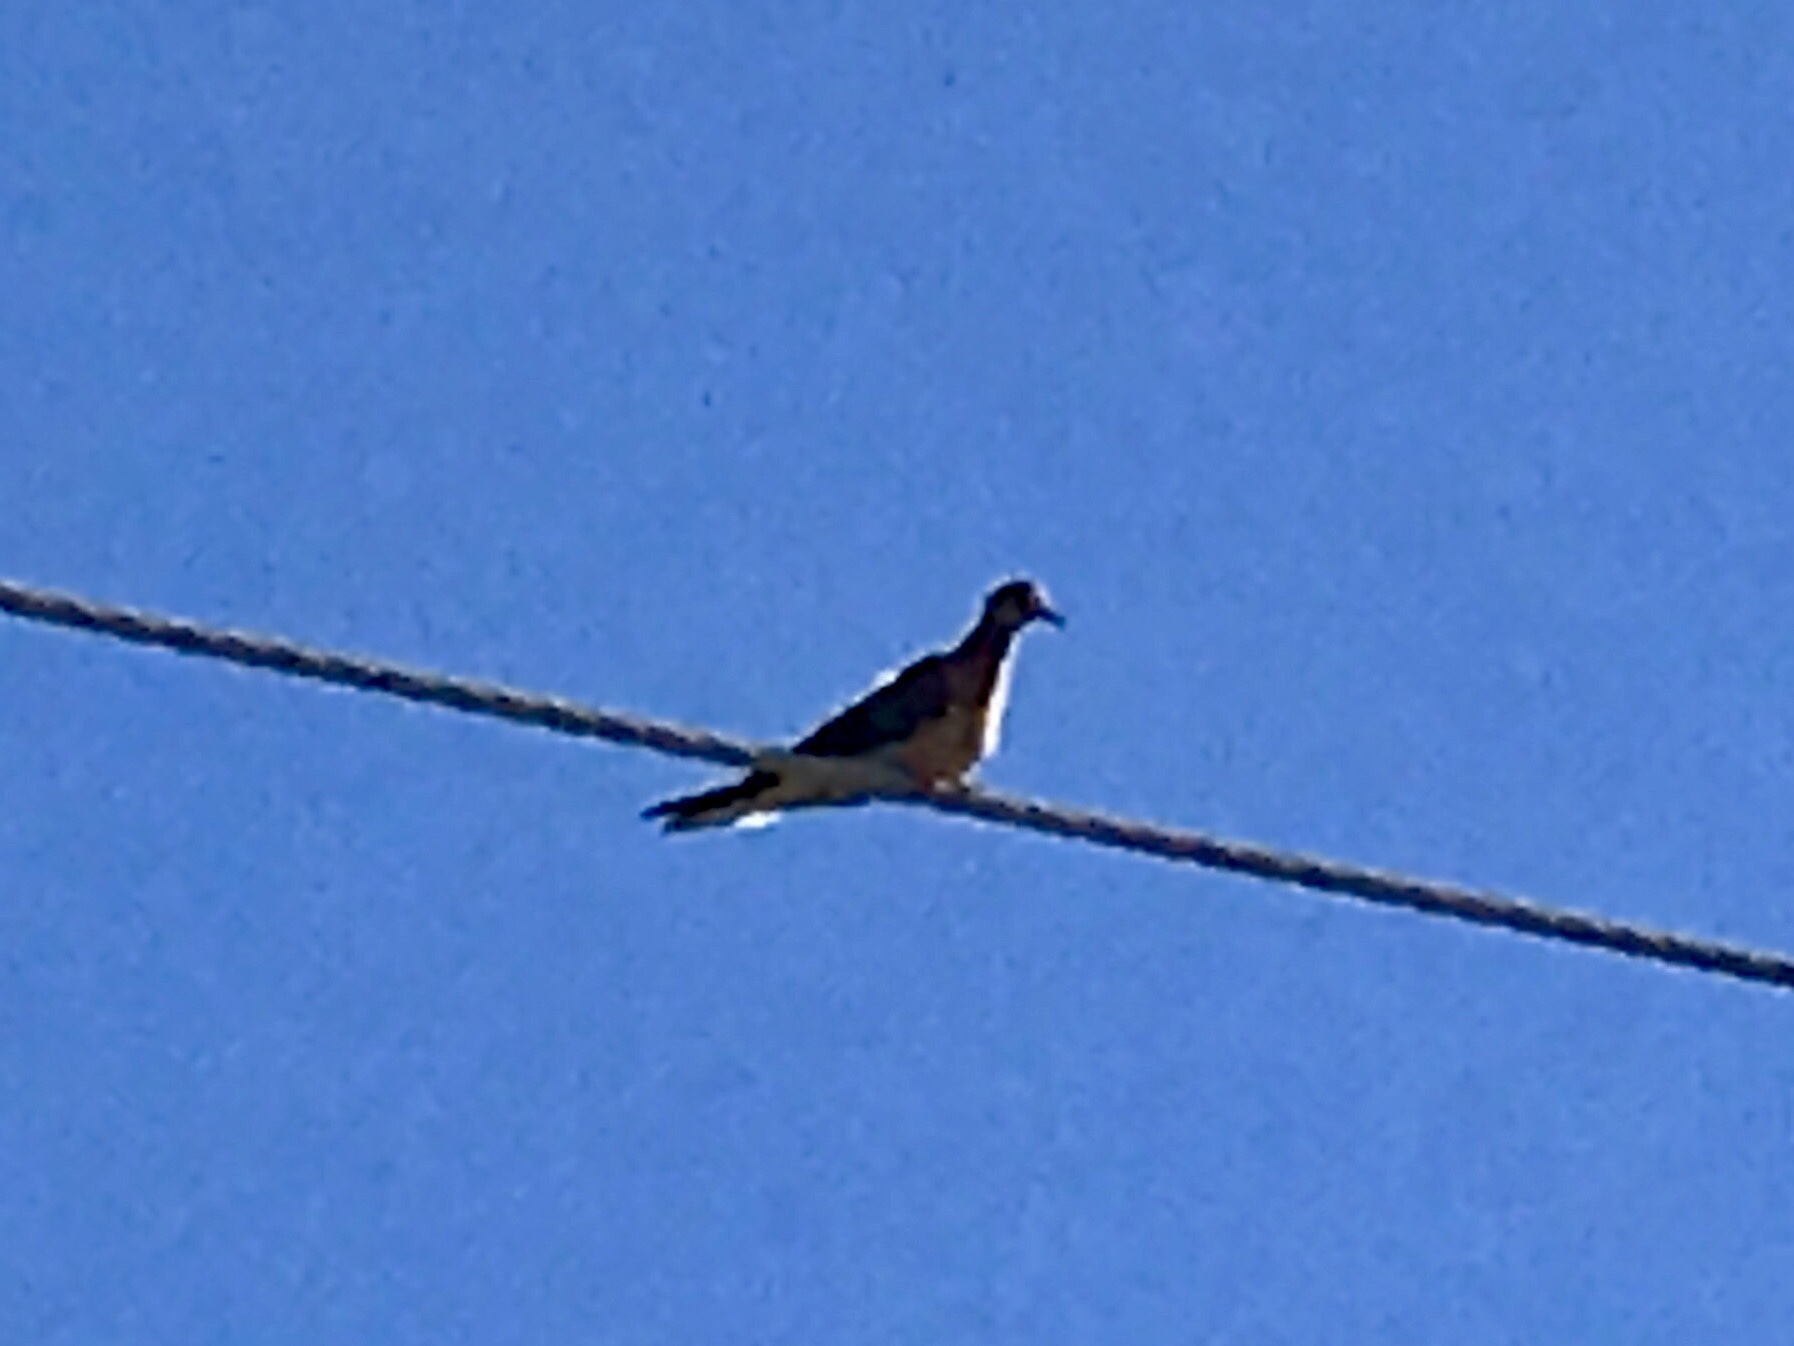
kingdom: Animalia
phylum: Chordata
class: Aves
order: Columbiformes
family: Columbidae
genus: Zenaida
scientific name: Zenaida macroura
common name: Mourning dove
